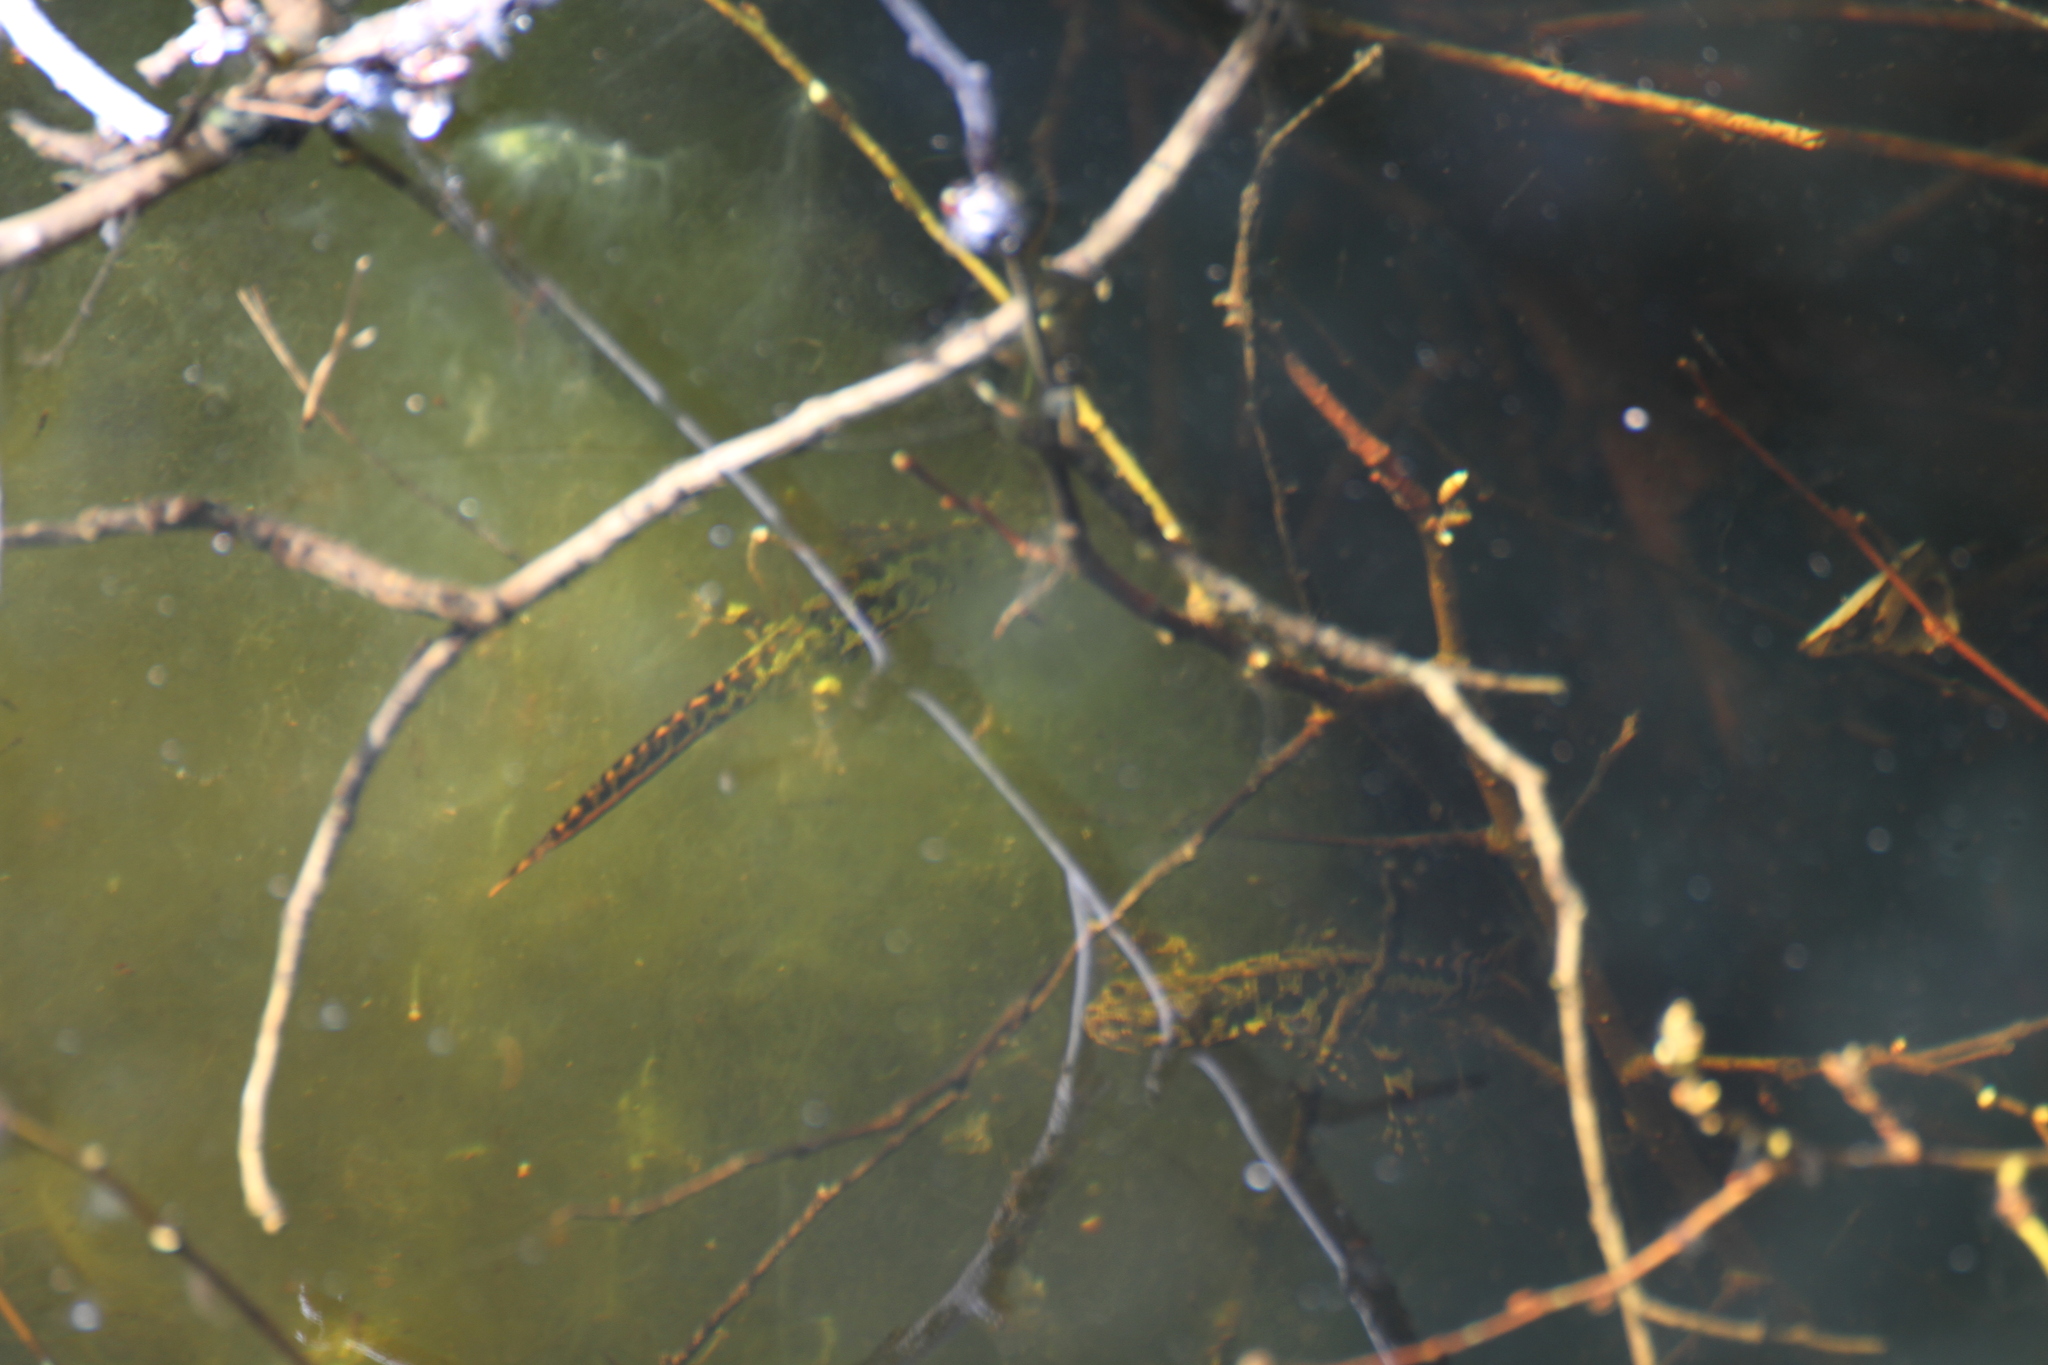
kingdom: Animalia
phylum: Chordata
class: Amphibia
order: Caudata
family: Salamandridae
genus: Triturus
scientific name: Triturus marmoratus
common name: Marbled newt
